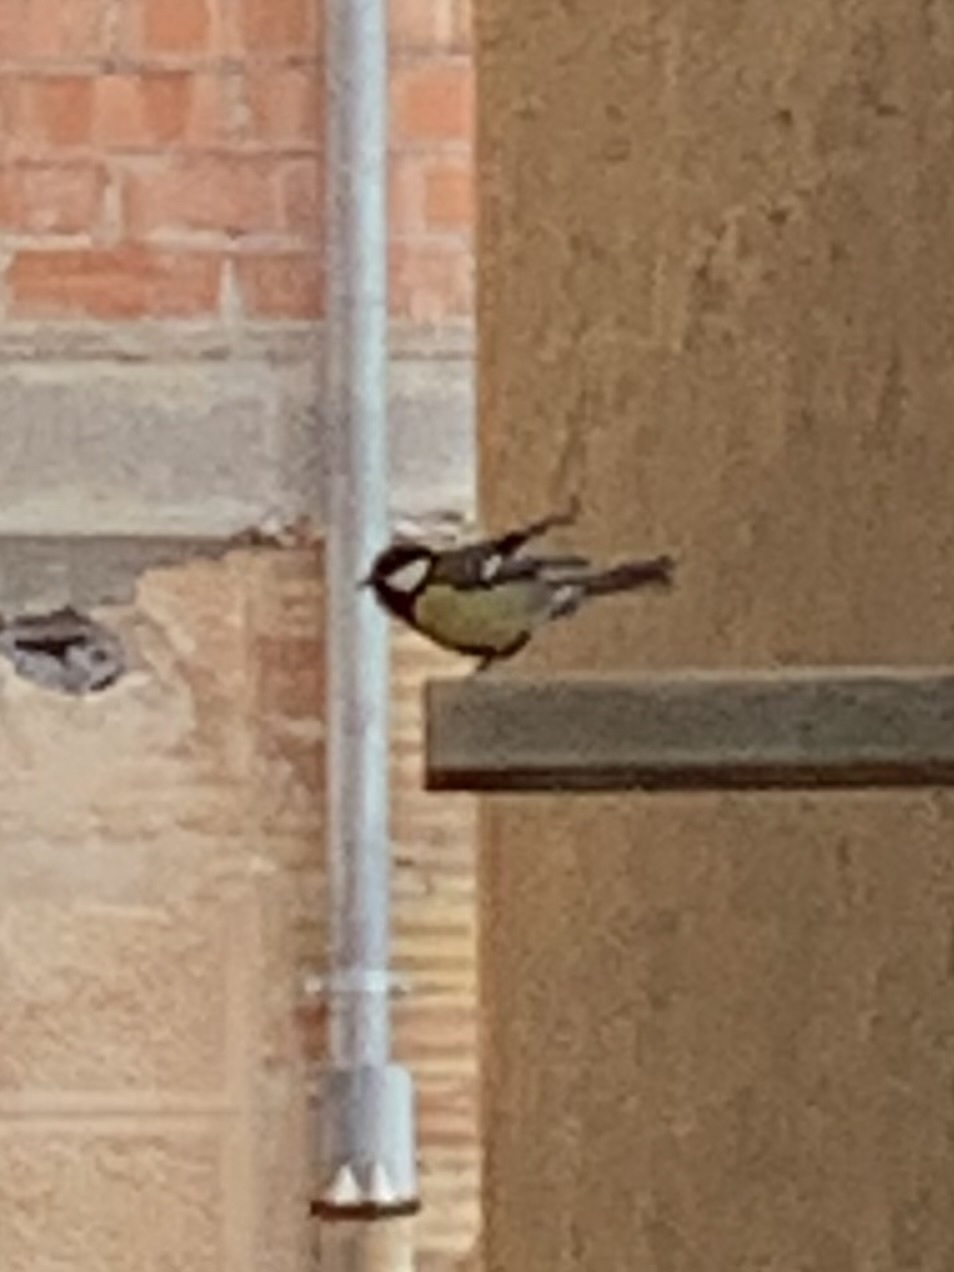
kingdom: Animalia
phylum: Chordata
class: Aves
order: Passeriformes
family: Paridae
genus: Parus
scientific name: Parus major
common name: Great tit
